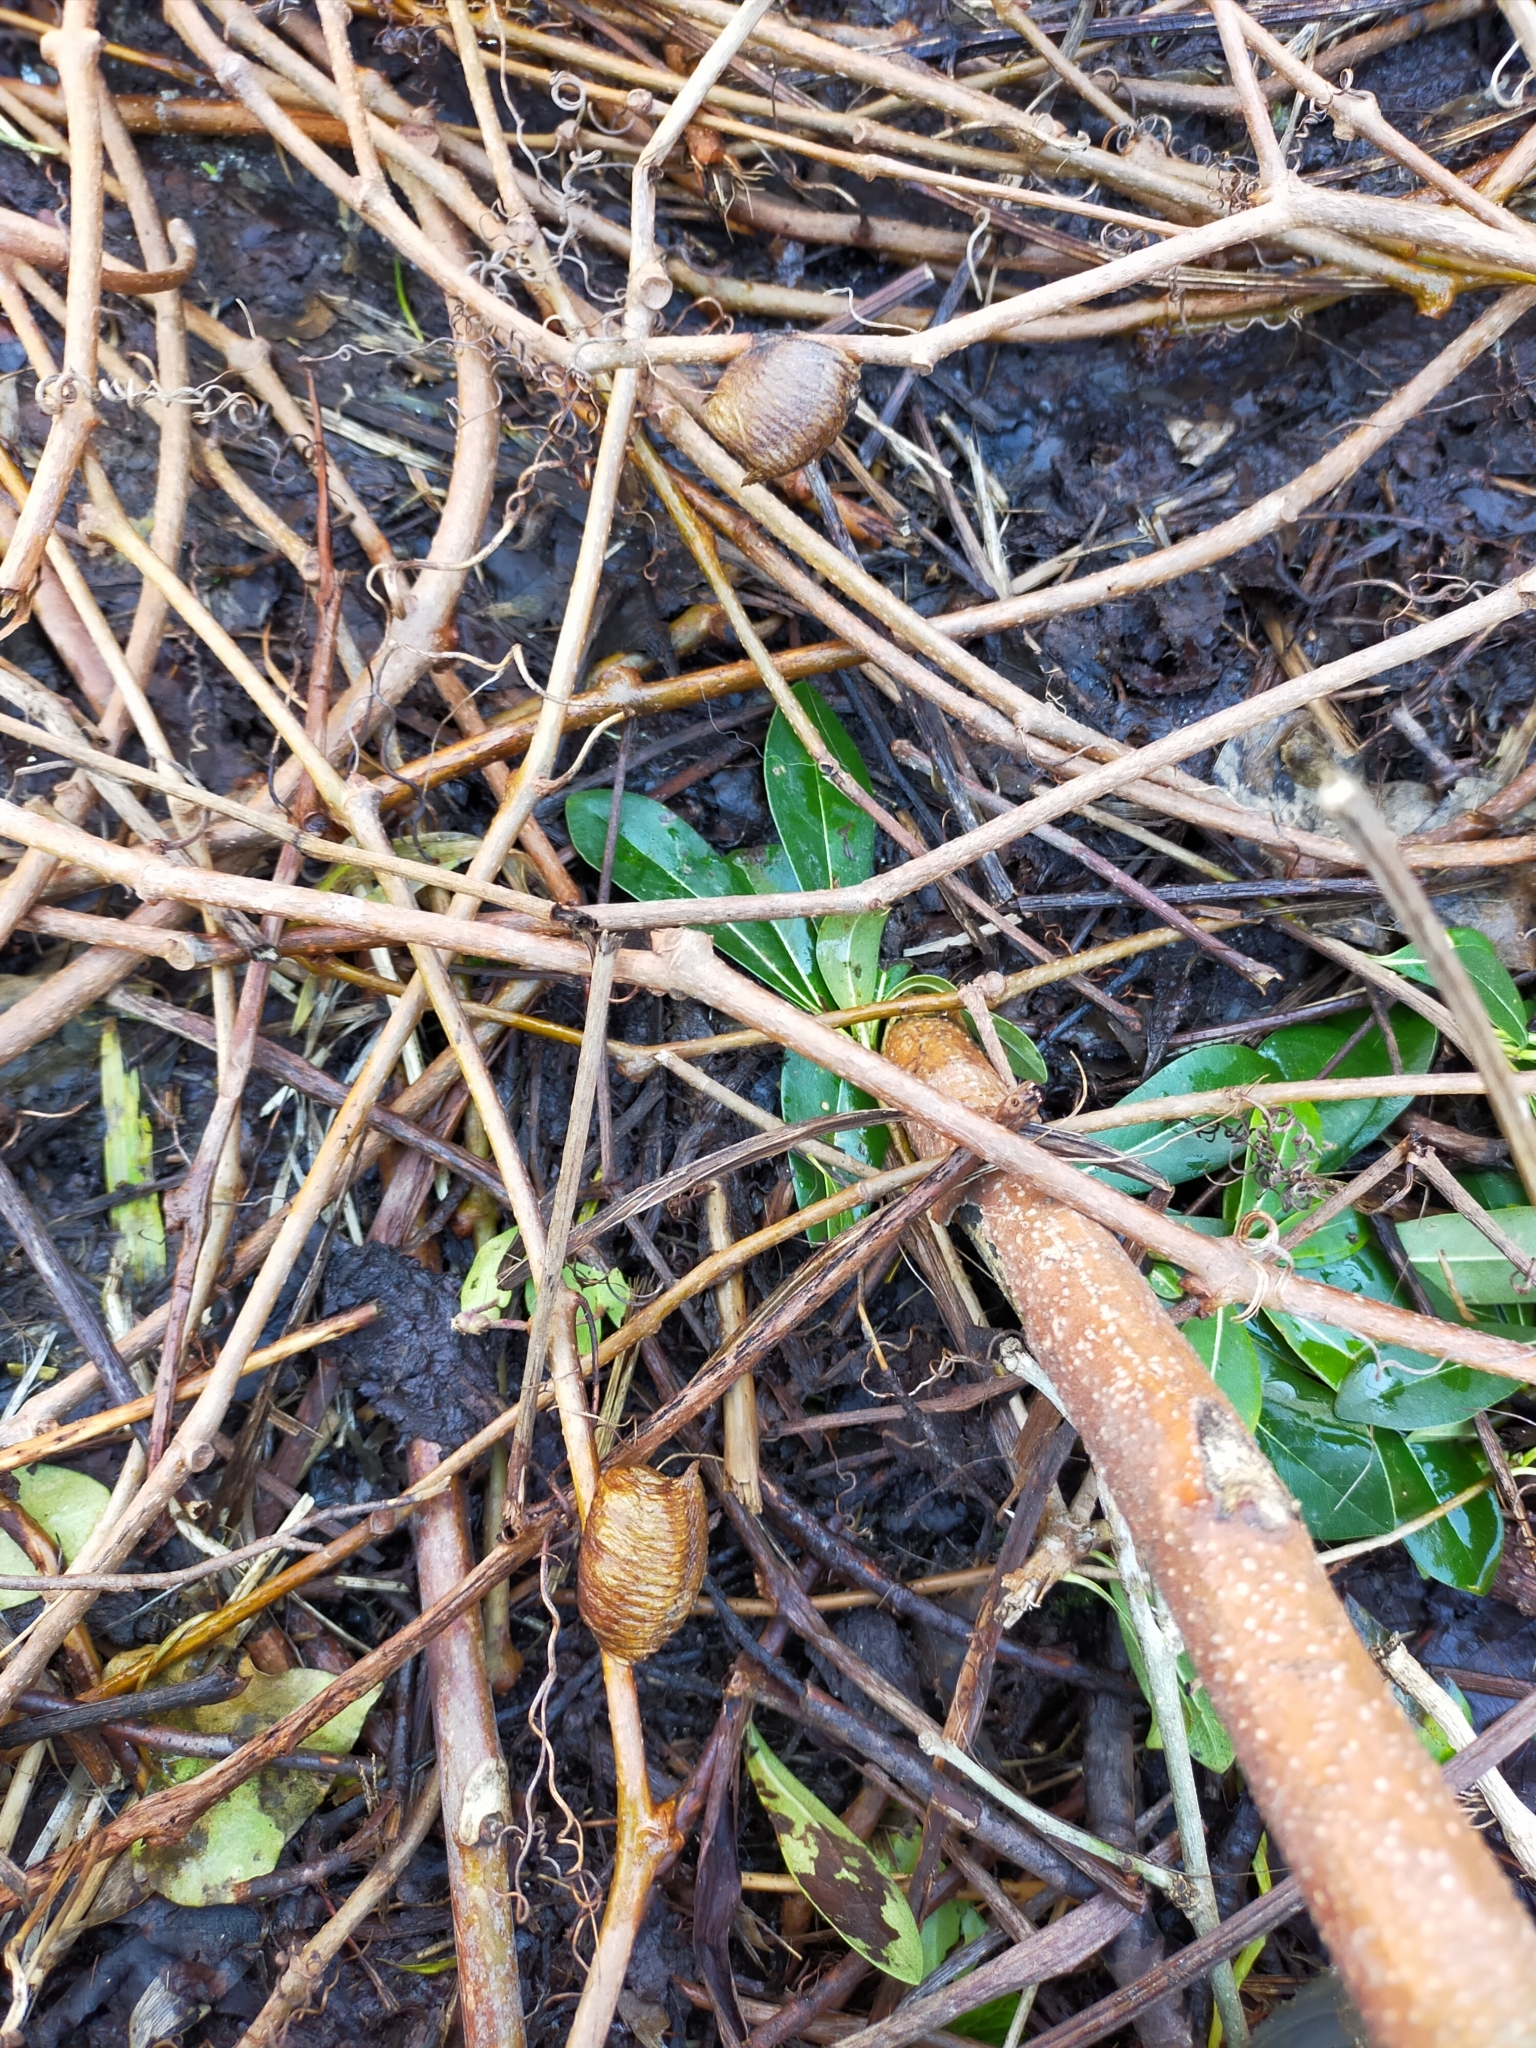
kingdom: Animalia
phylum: Arthropoda
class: Insecta
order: Mantodea
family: Mantidae
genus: Hierodula
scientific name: Hierodula transcaucasica
